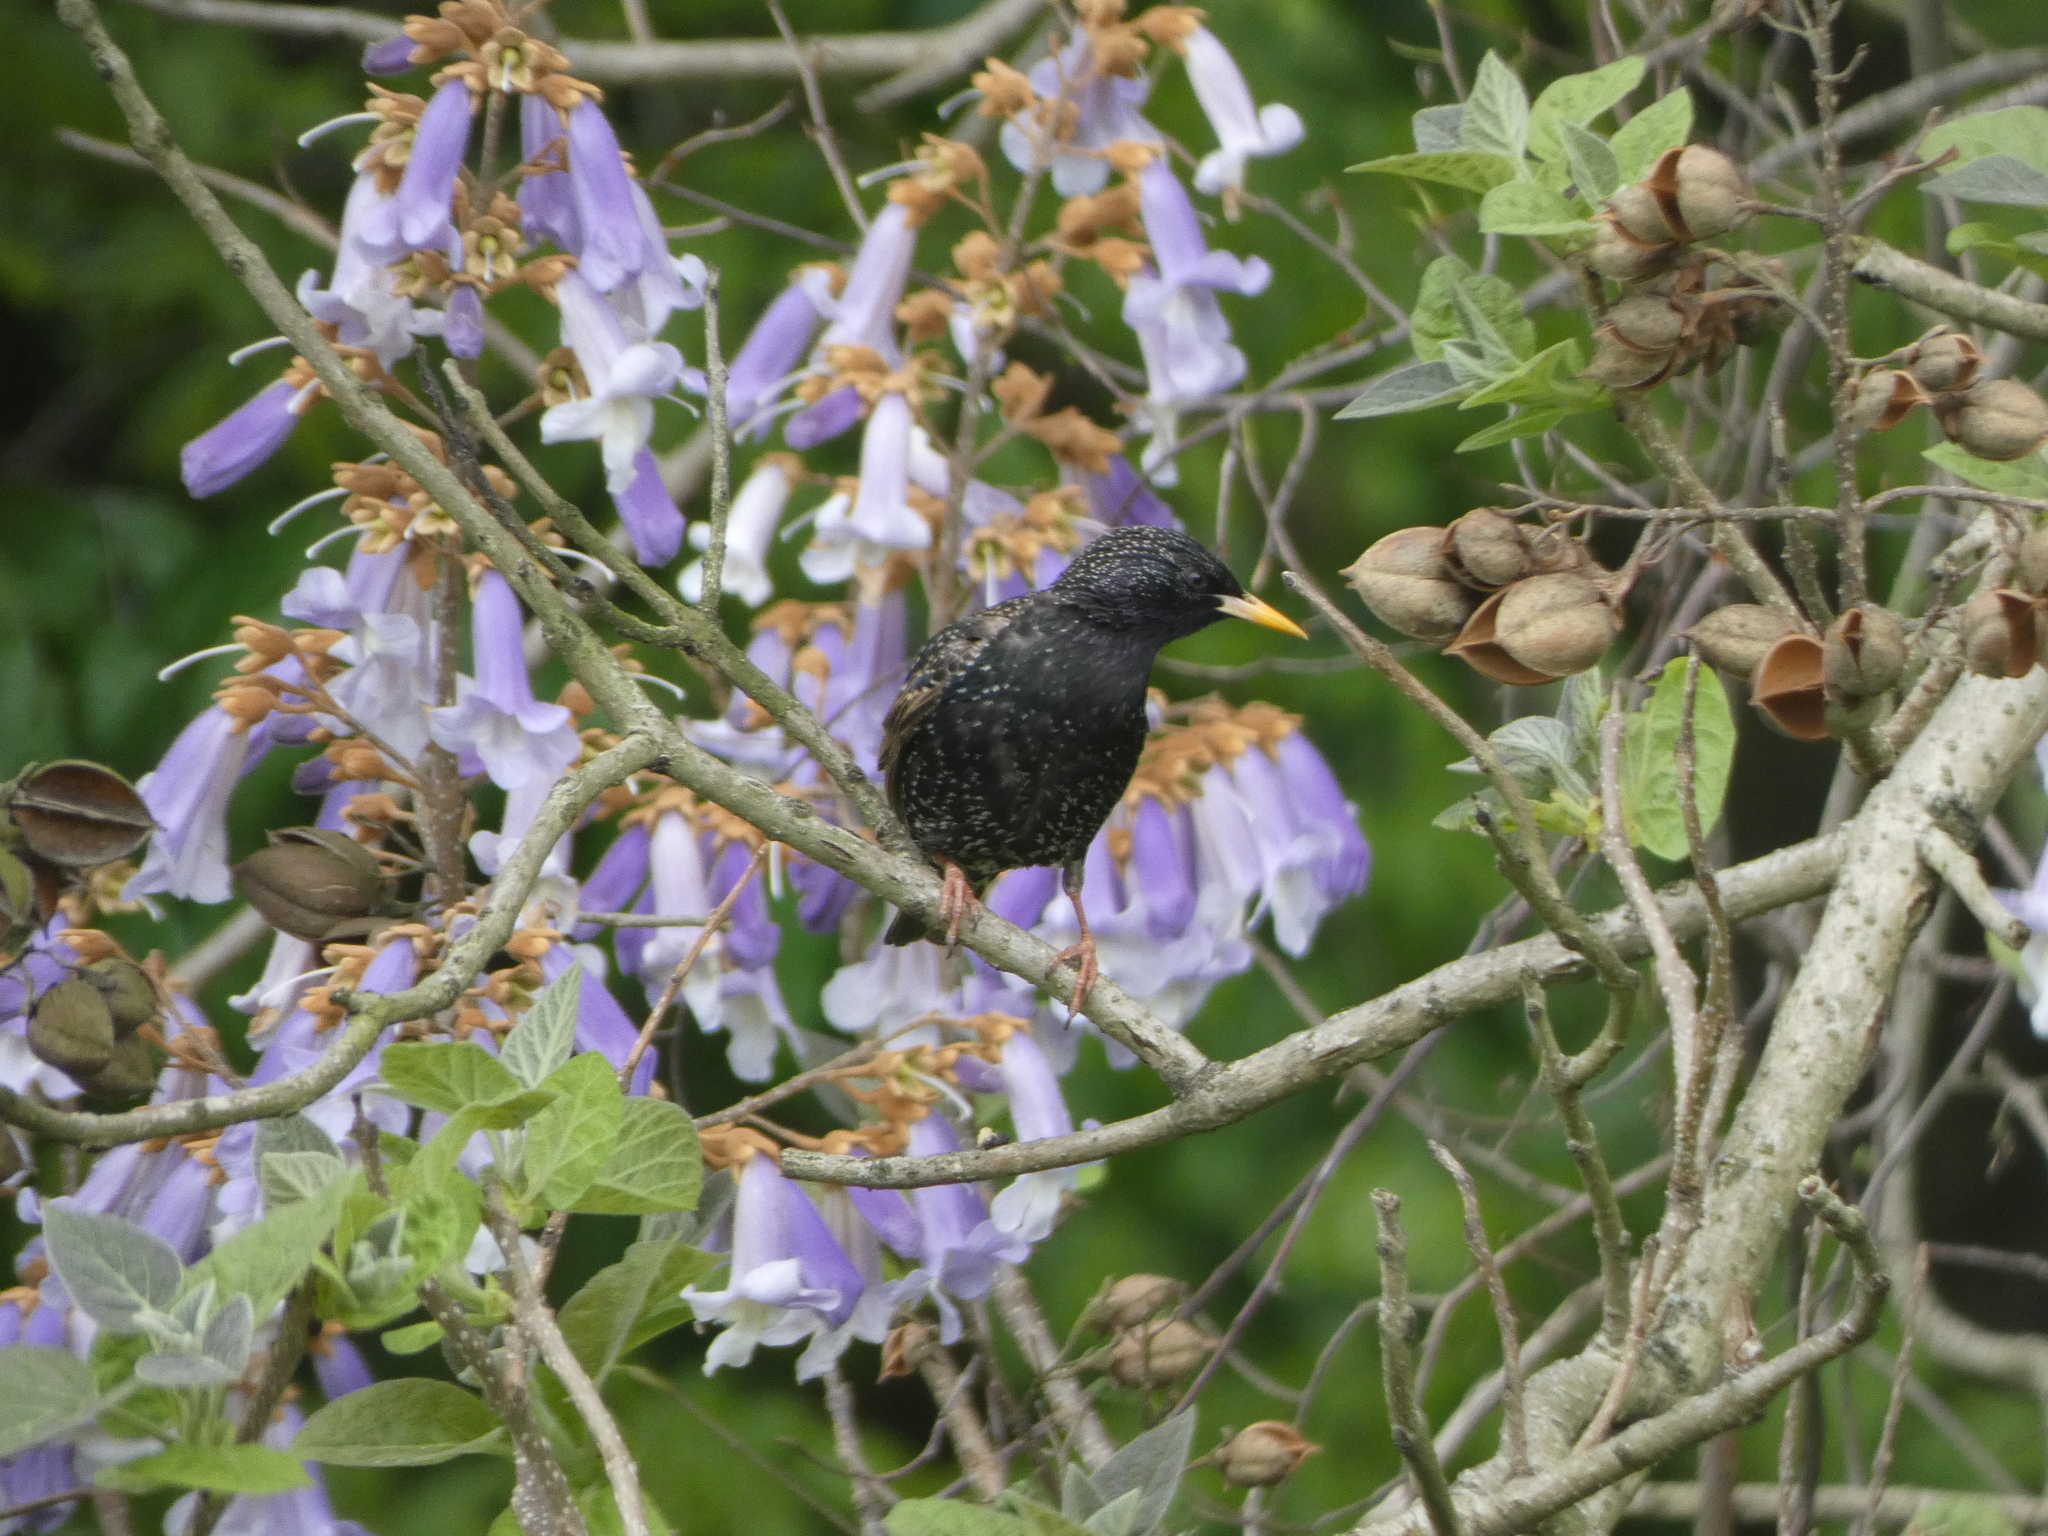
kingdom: Animalia
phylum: Chordata
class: Aves
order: Passeriformes
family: Sturnidae
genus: Sturnus
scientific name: Sturnus vulgaris
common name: Common starling
